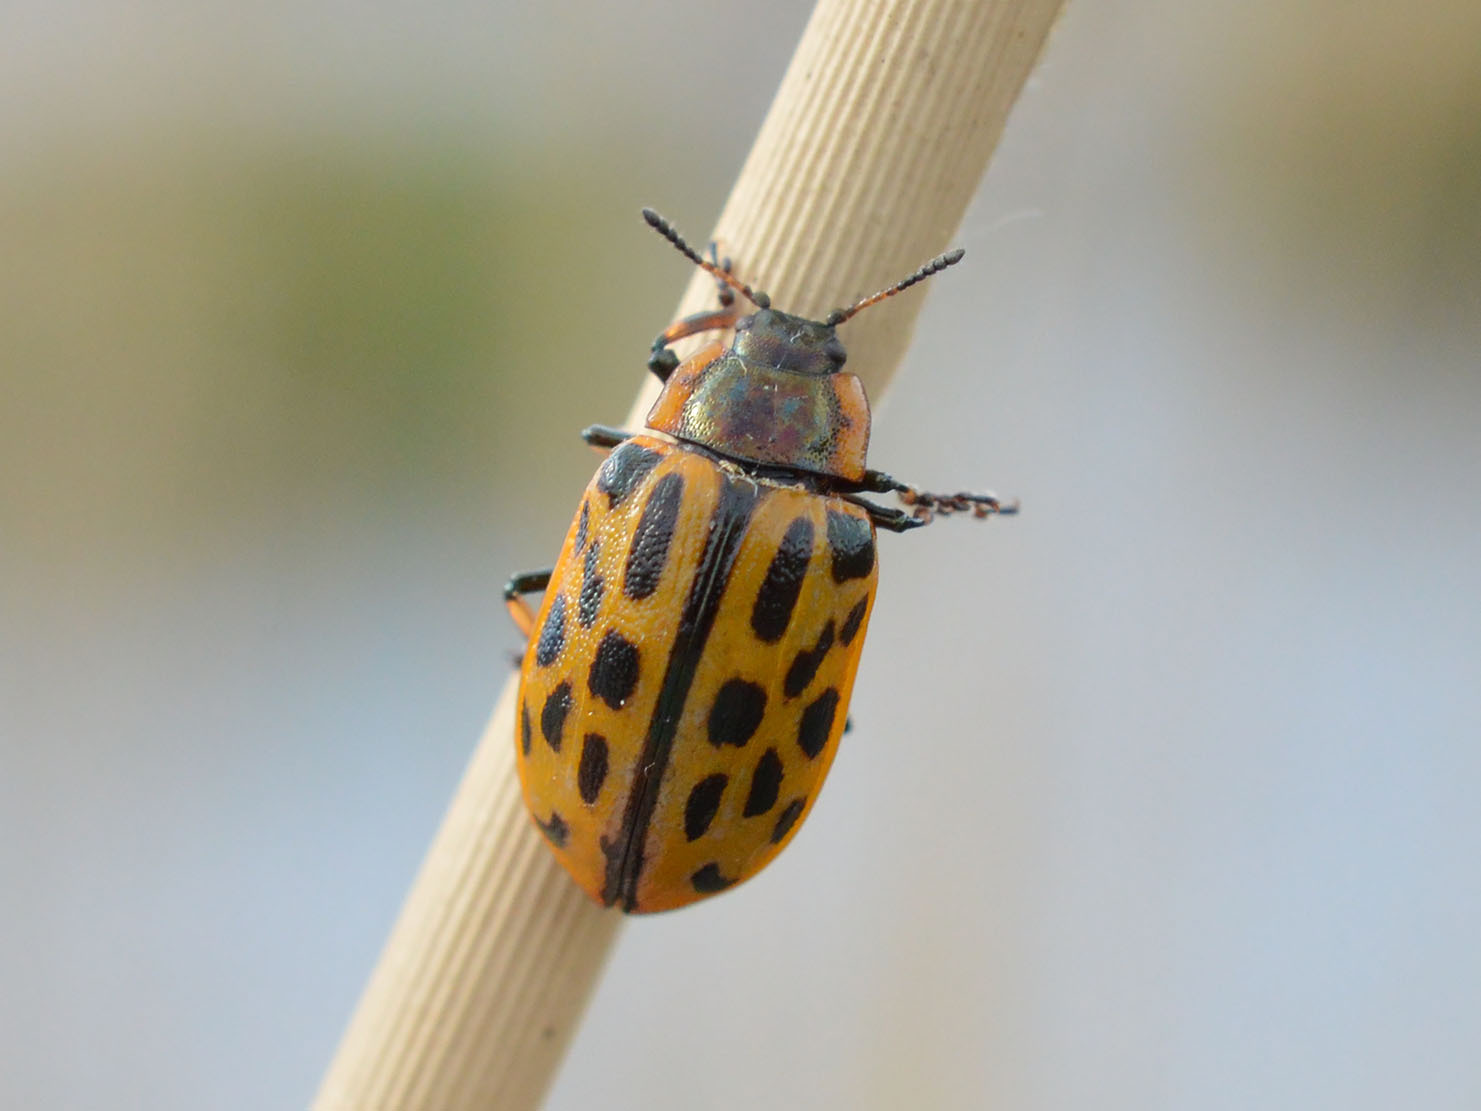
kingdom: Animalia
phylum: Arthropoda
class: Insecta
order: Coleoptera
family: Chrysomelidae
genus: Chrysomela
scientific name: Chrysomela vigintipunctata
